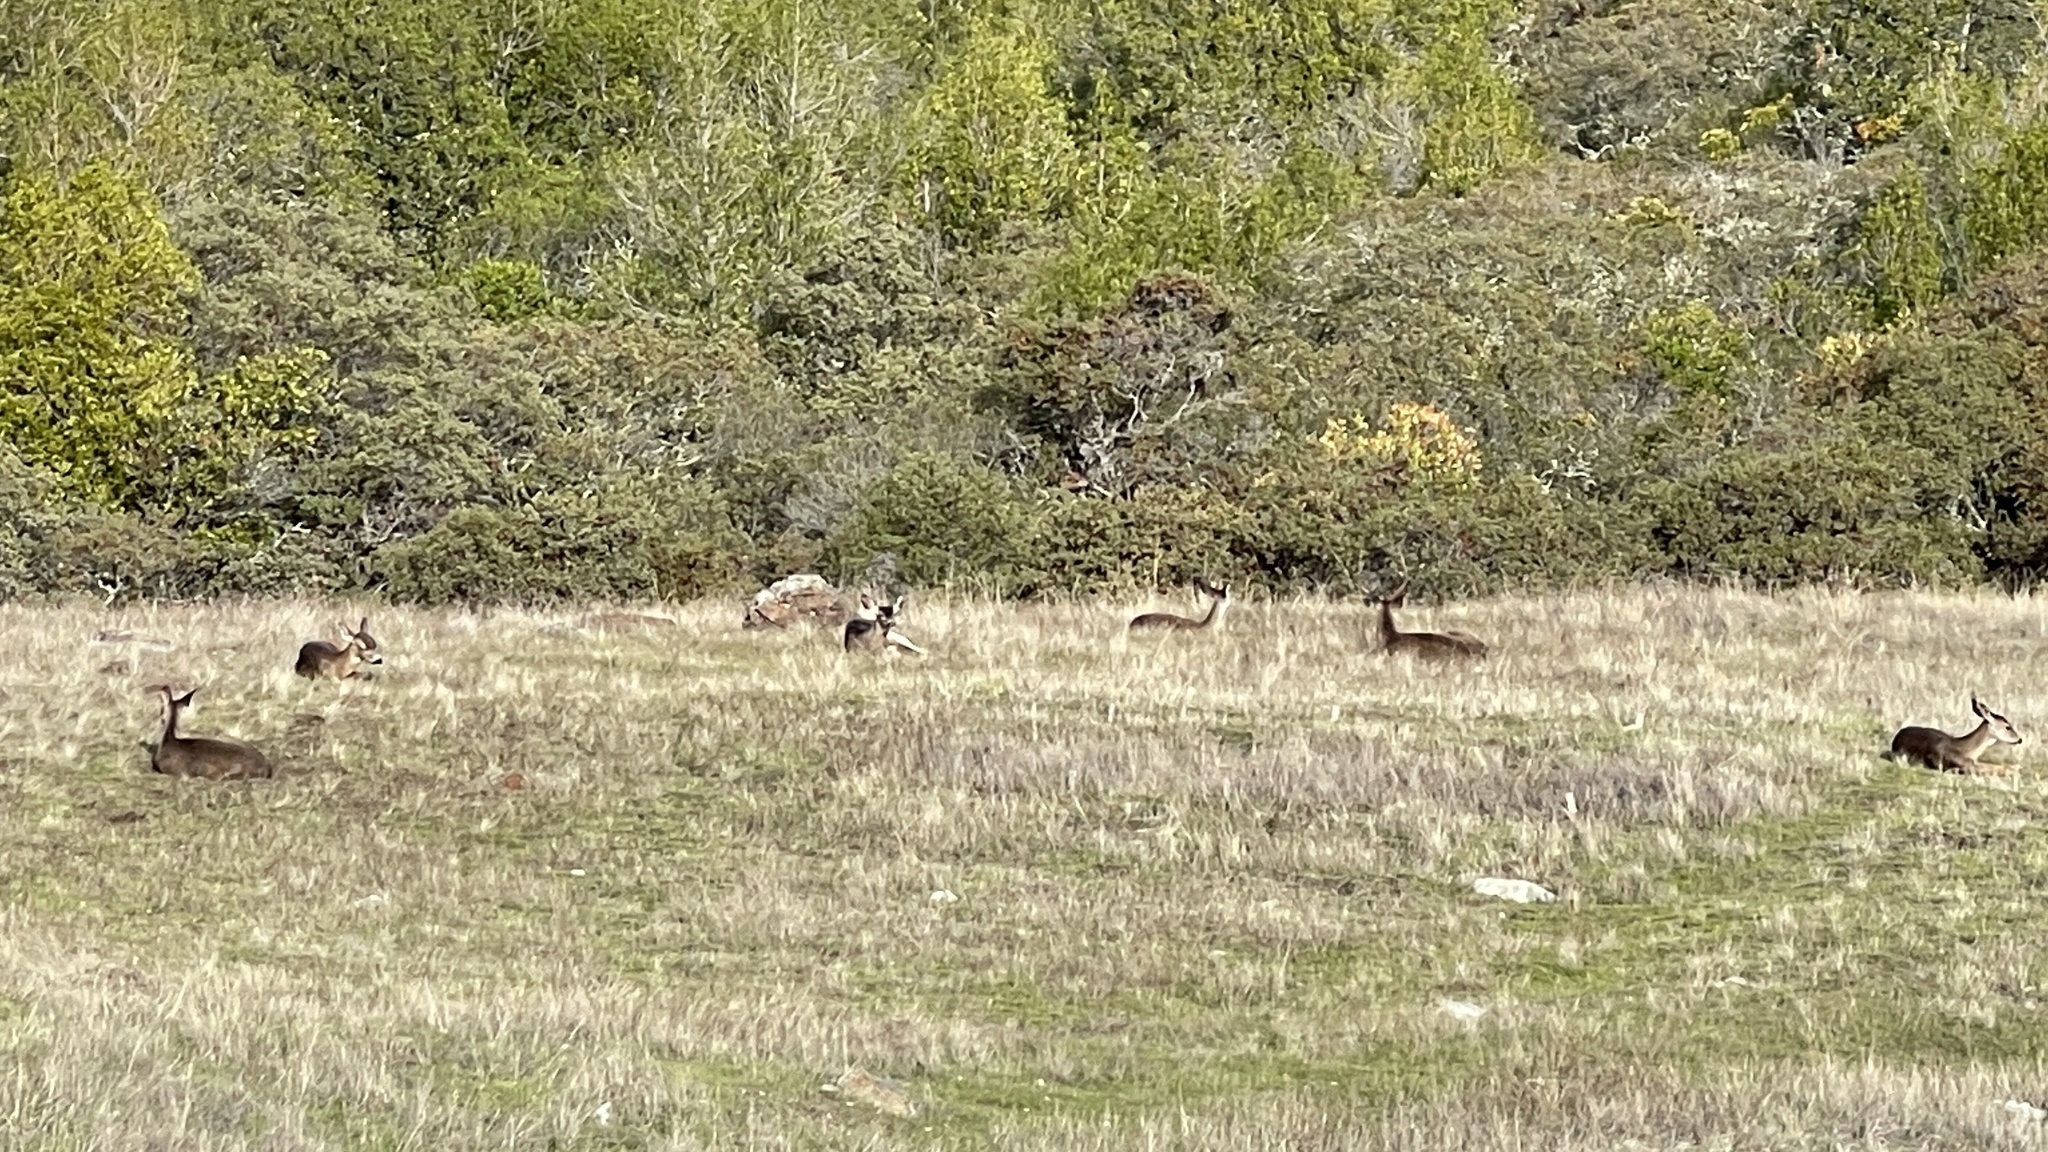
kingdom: Animalia
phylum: Chordata
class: Mammalia
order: Artiodactyla
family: Cervidae
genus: Odocoileus
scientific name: Odocoileus hemionus
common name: Mule deer
